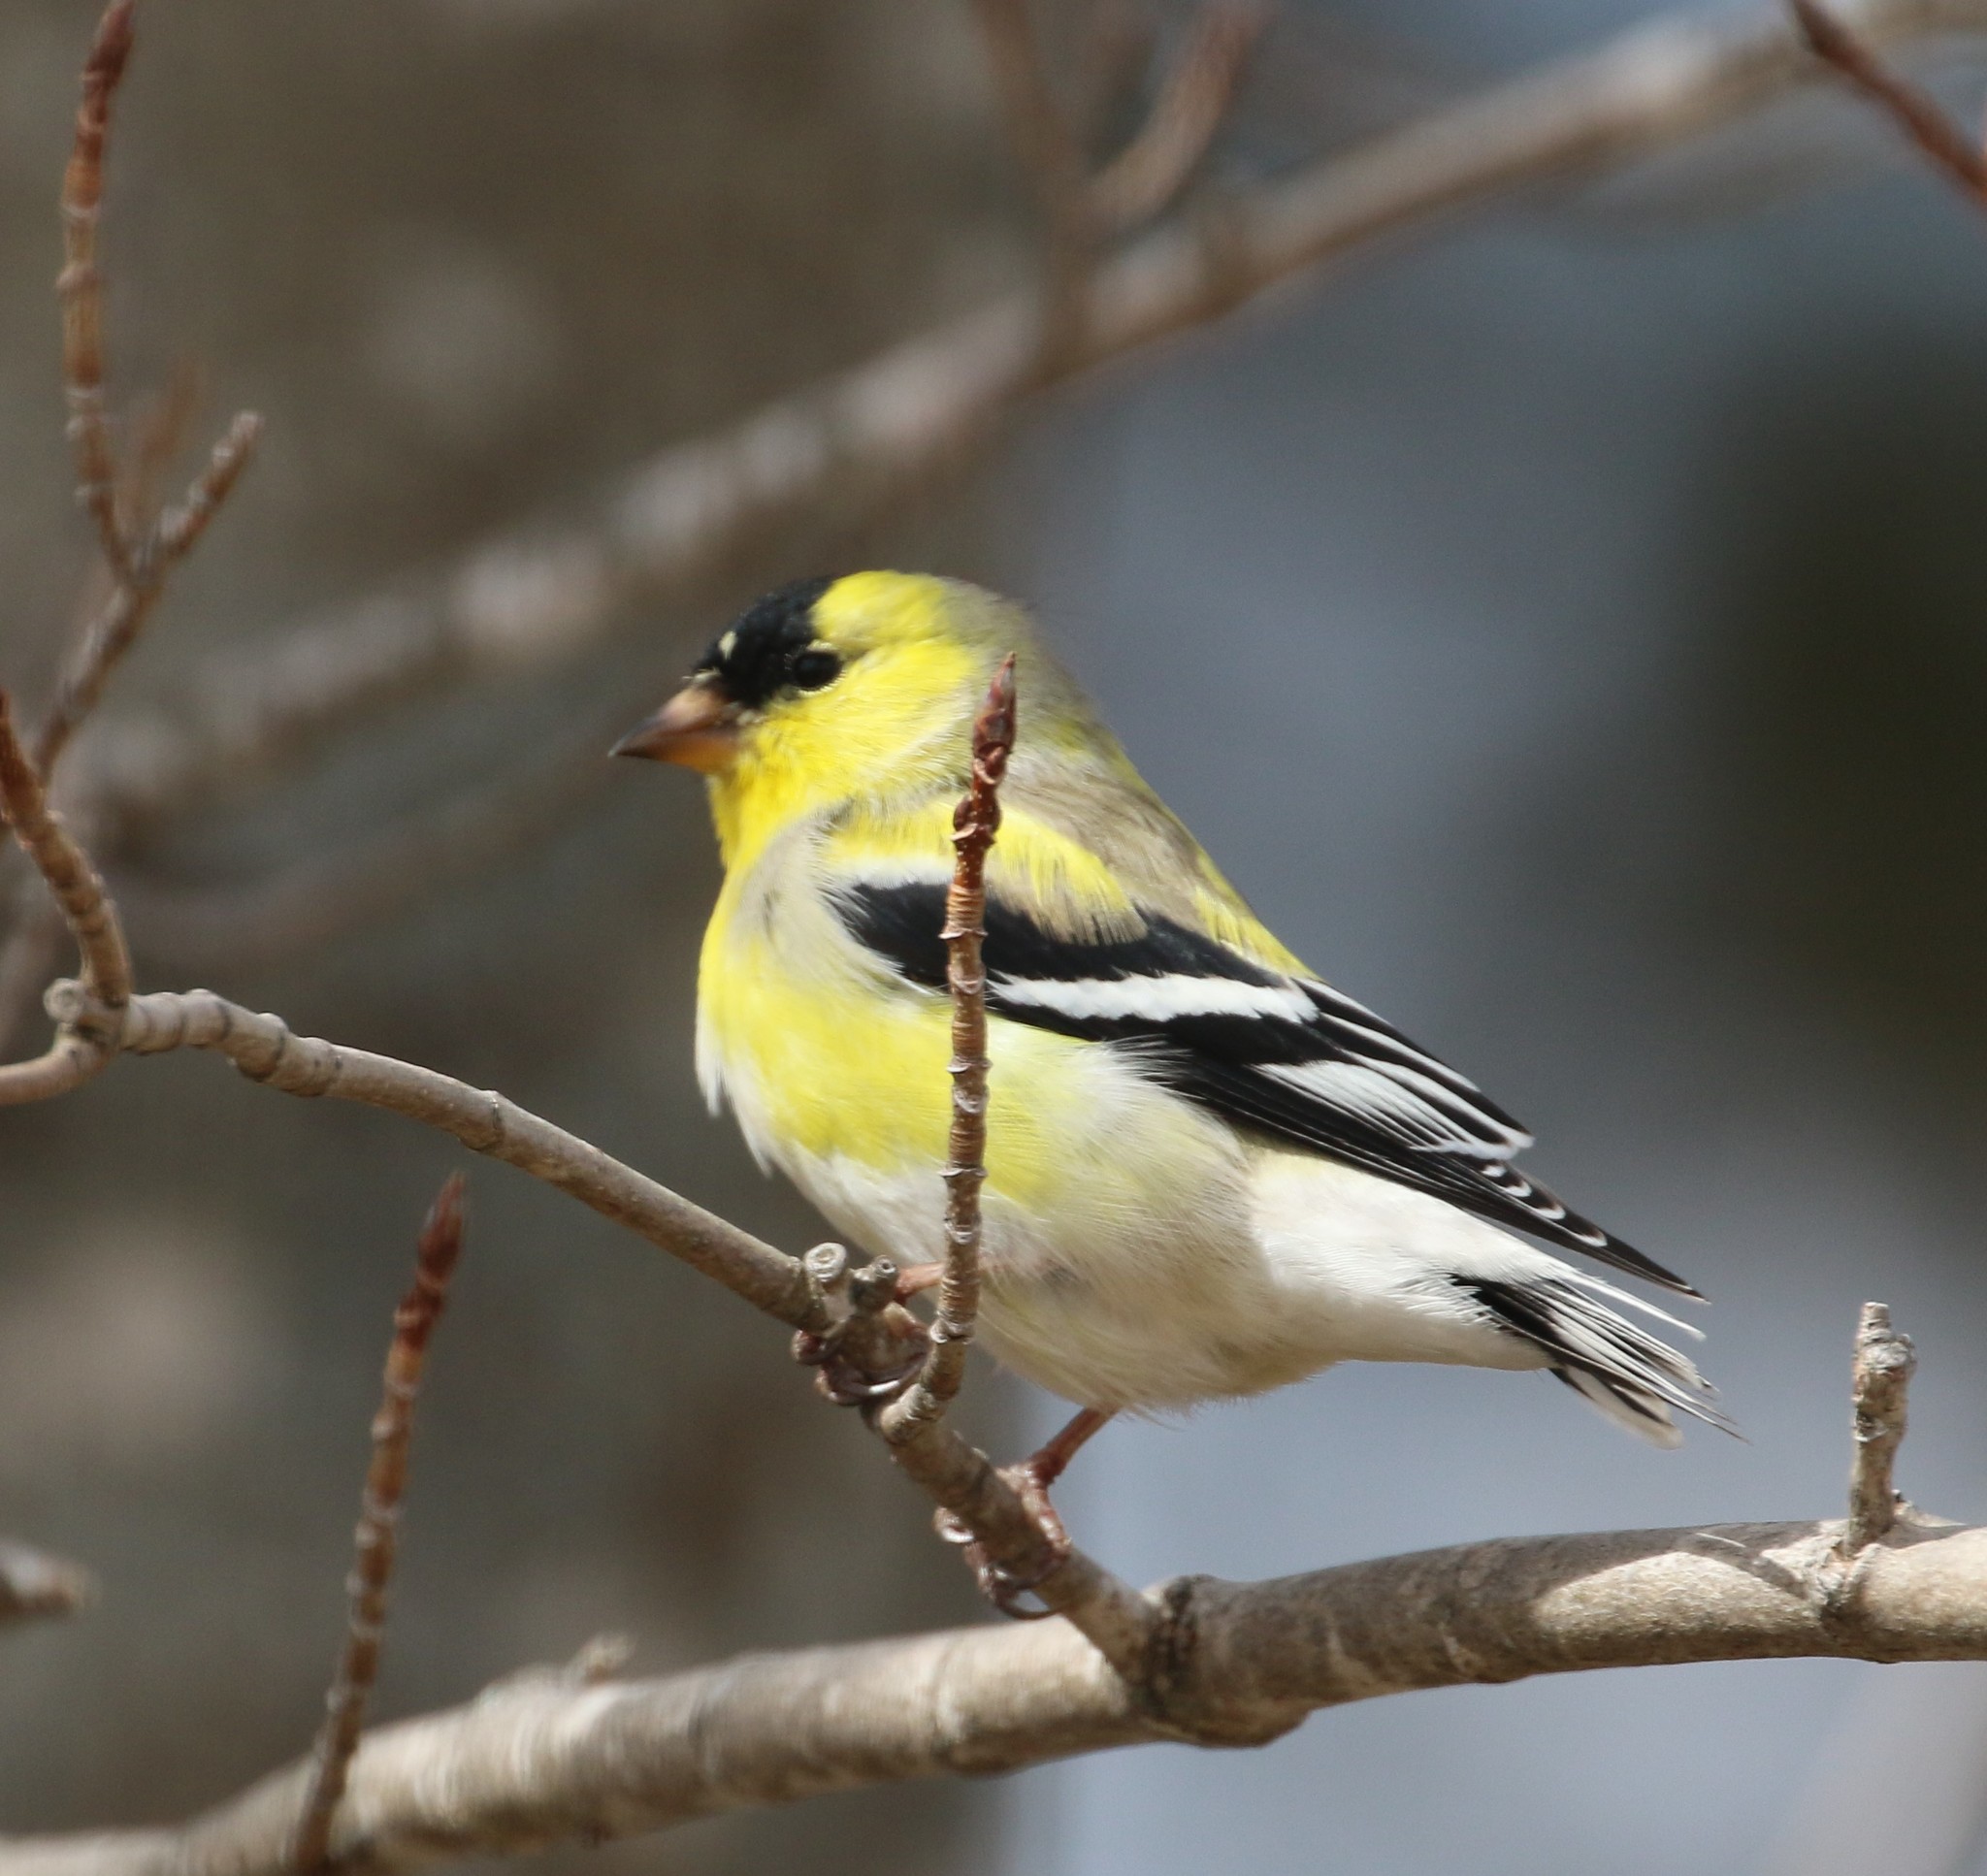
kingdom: Animalia
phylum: Chordata
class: Aves
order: Passeriformes
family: Fringillidae
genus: Spinus
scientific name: Spinus tristis
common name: American goldfinch
